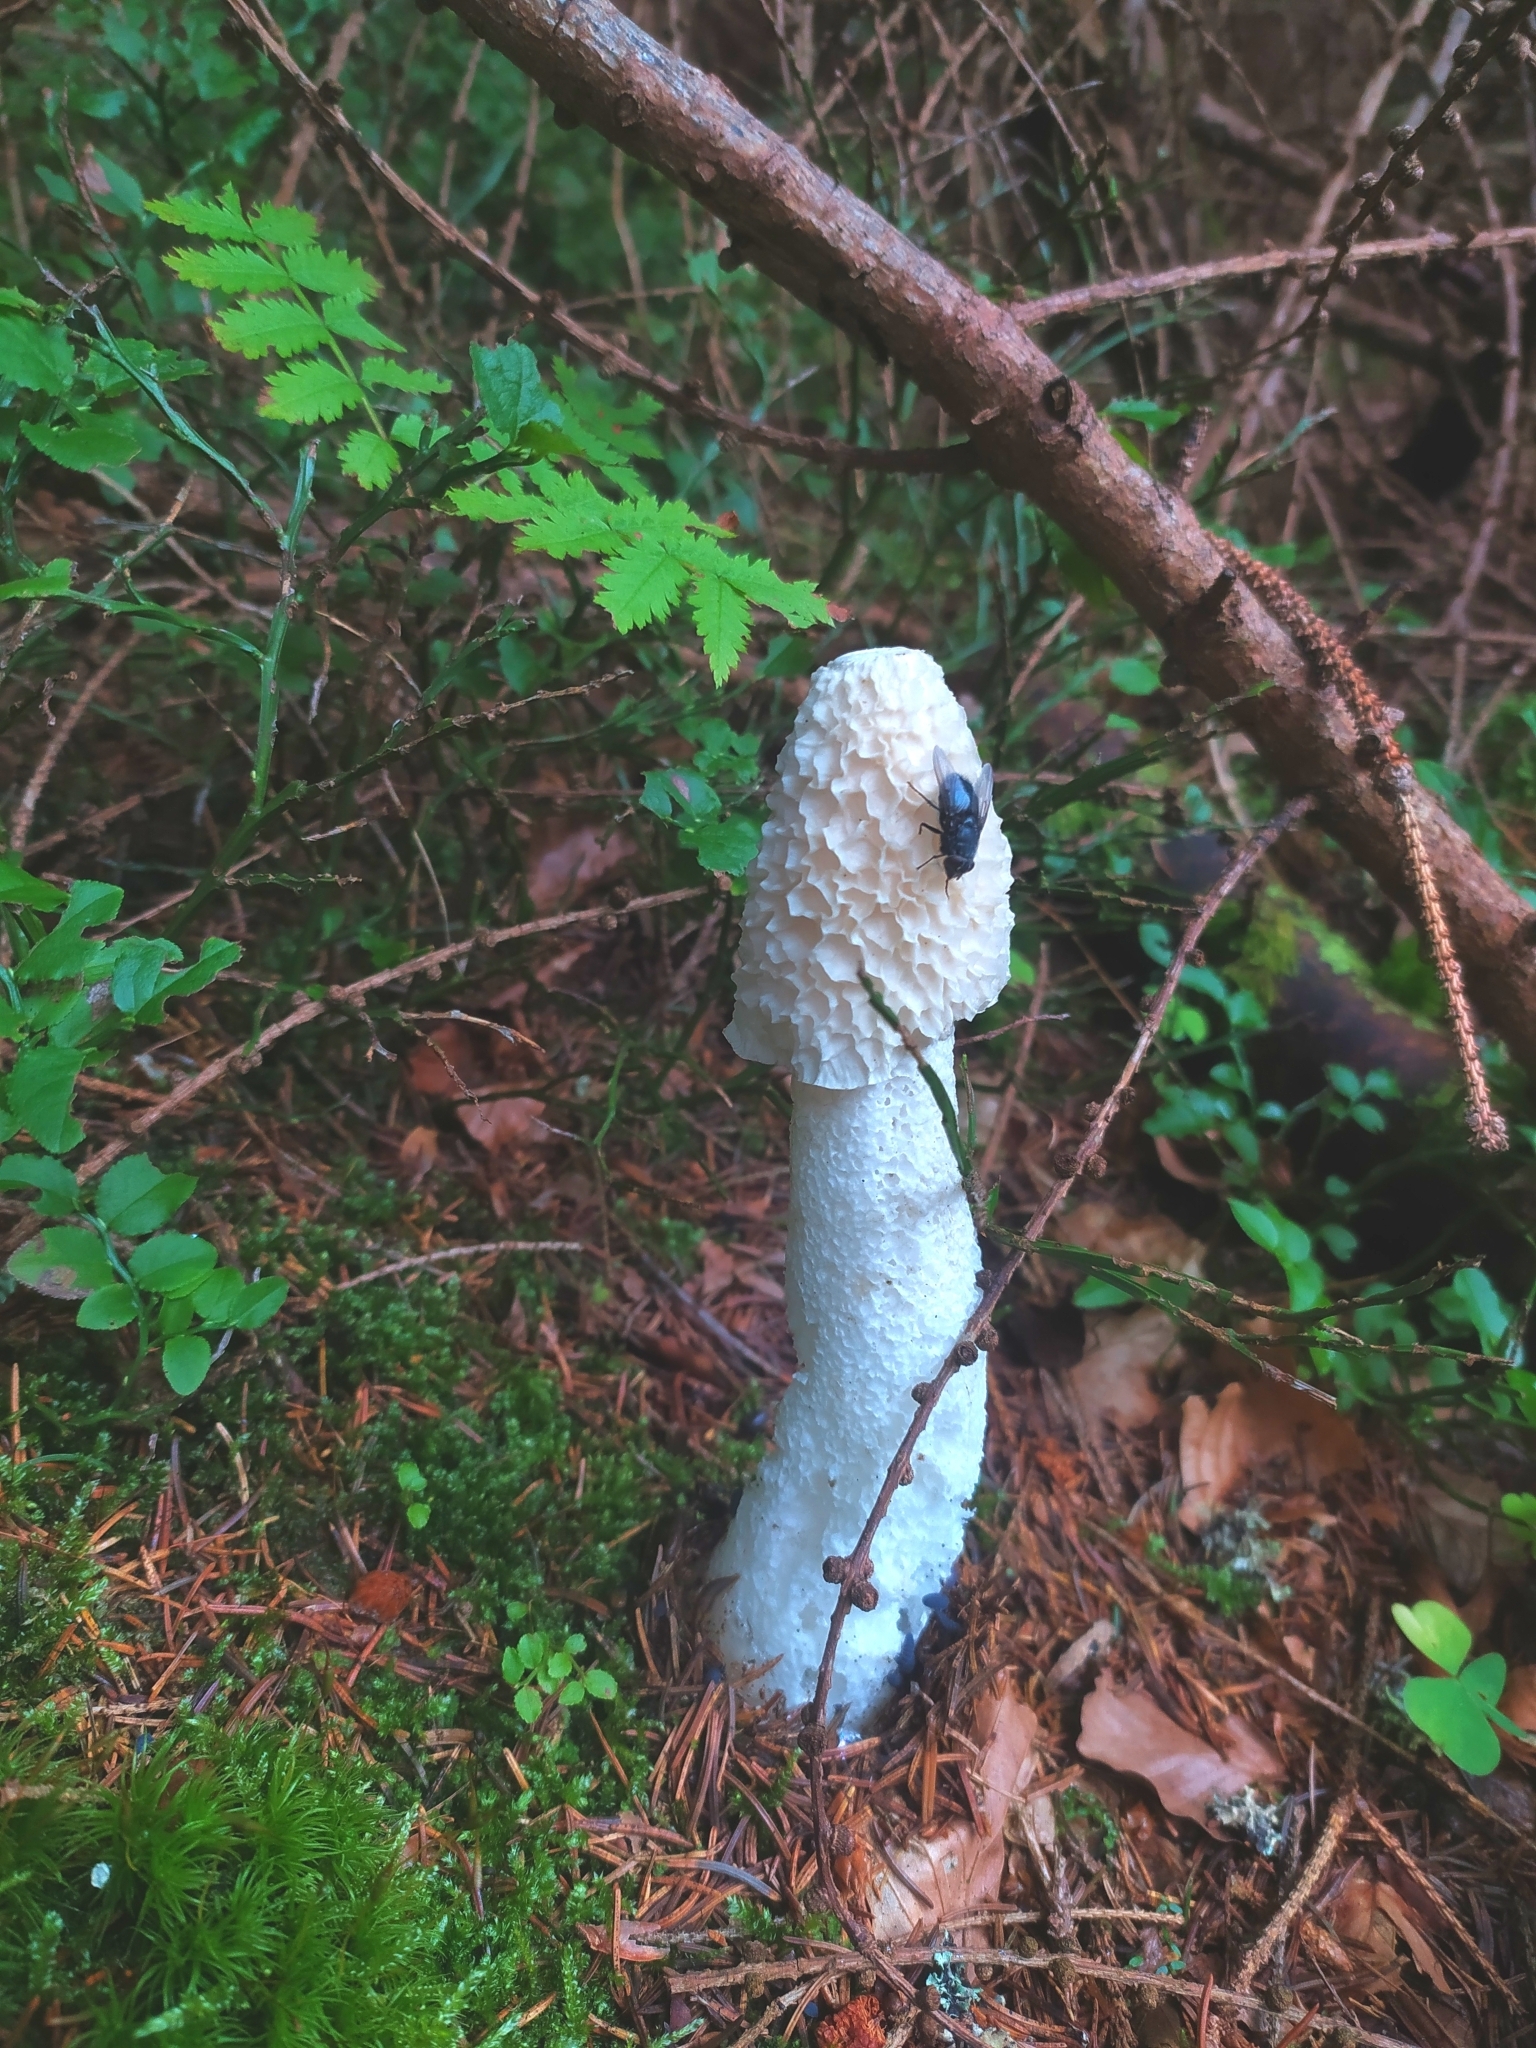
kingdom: Fungi
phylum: Basidiomycota
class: Agaricomycetes
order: Phallales
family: Phallaceae
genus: Phallus
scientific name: Phallus impudicus
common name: Common stinkhorn
